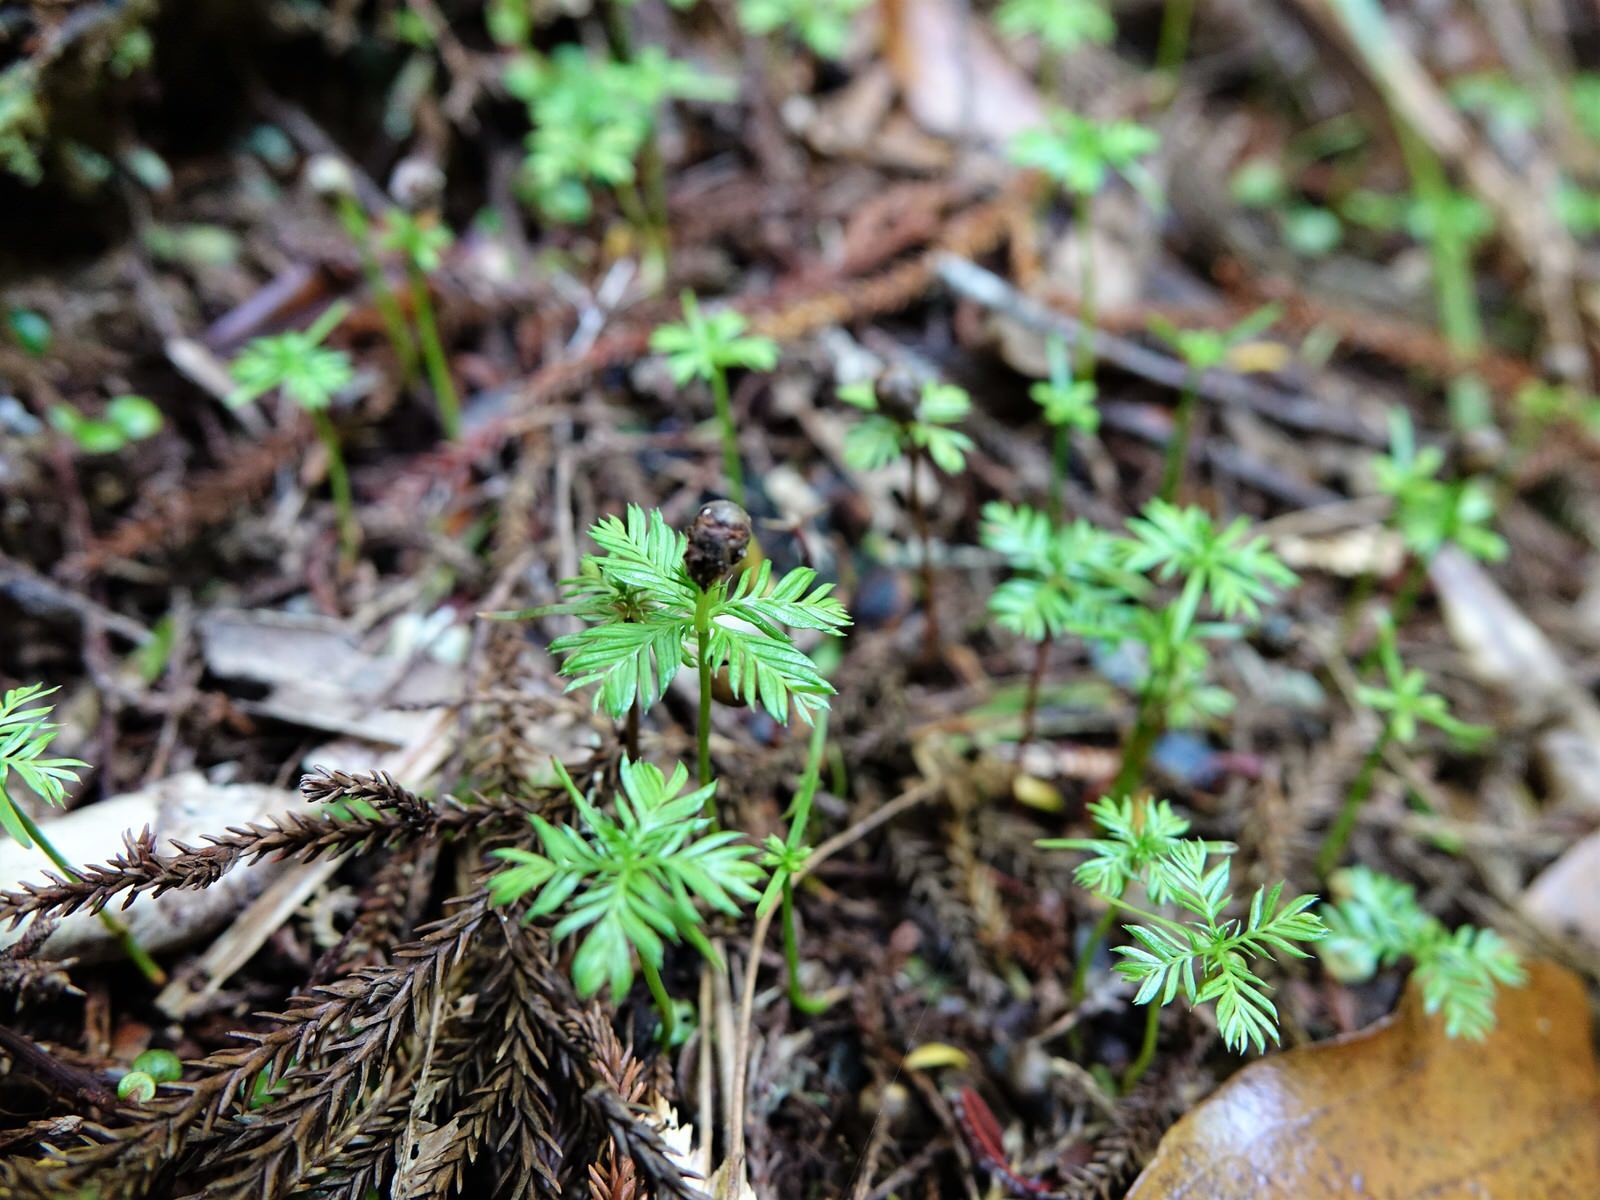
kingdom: Plantae
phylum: Tracheophyta
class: Pinopsida
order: Pinales
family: Podocarpaceae
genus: Dacrycarpus
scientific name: Dacrycarpus dacrydioides
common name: White pine
